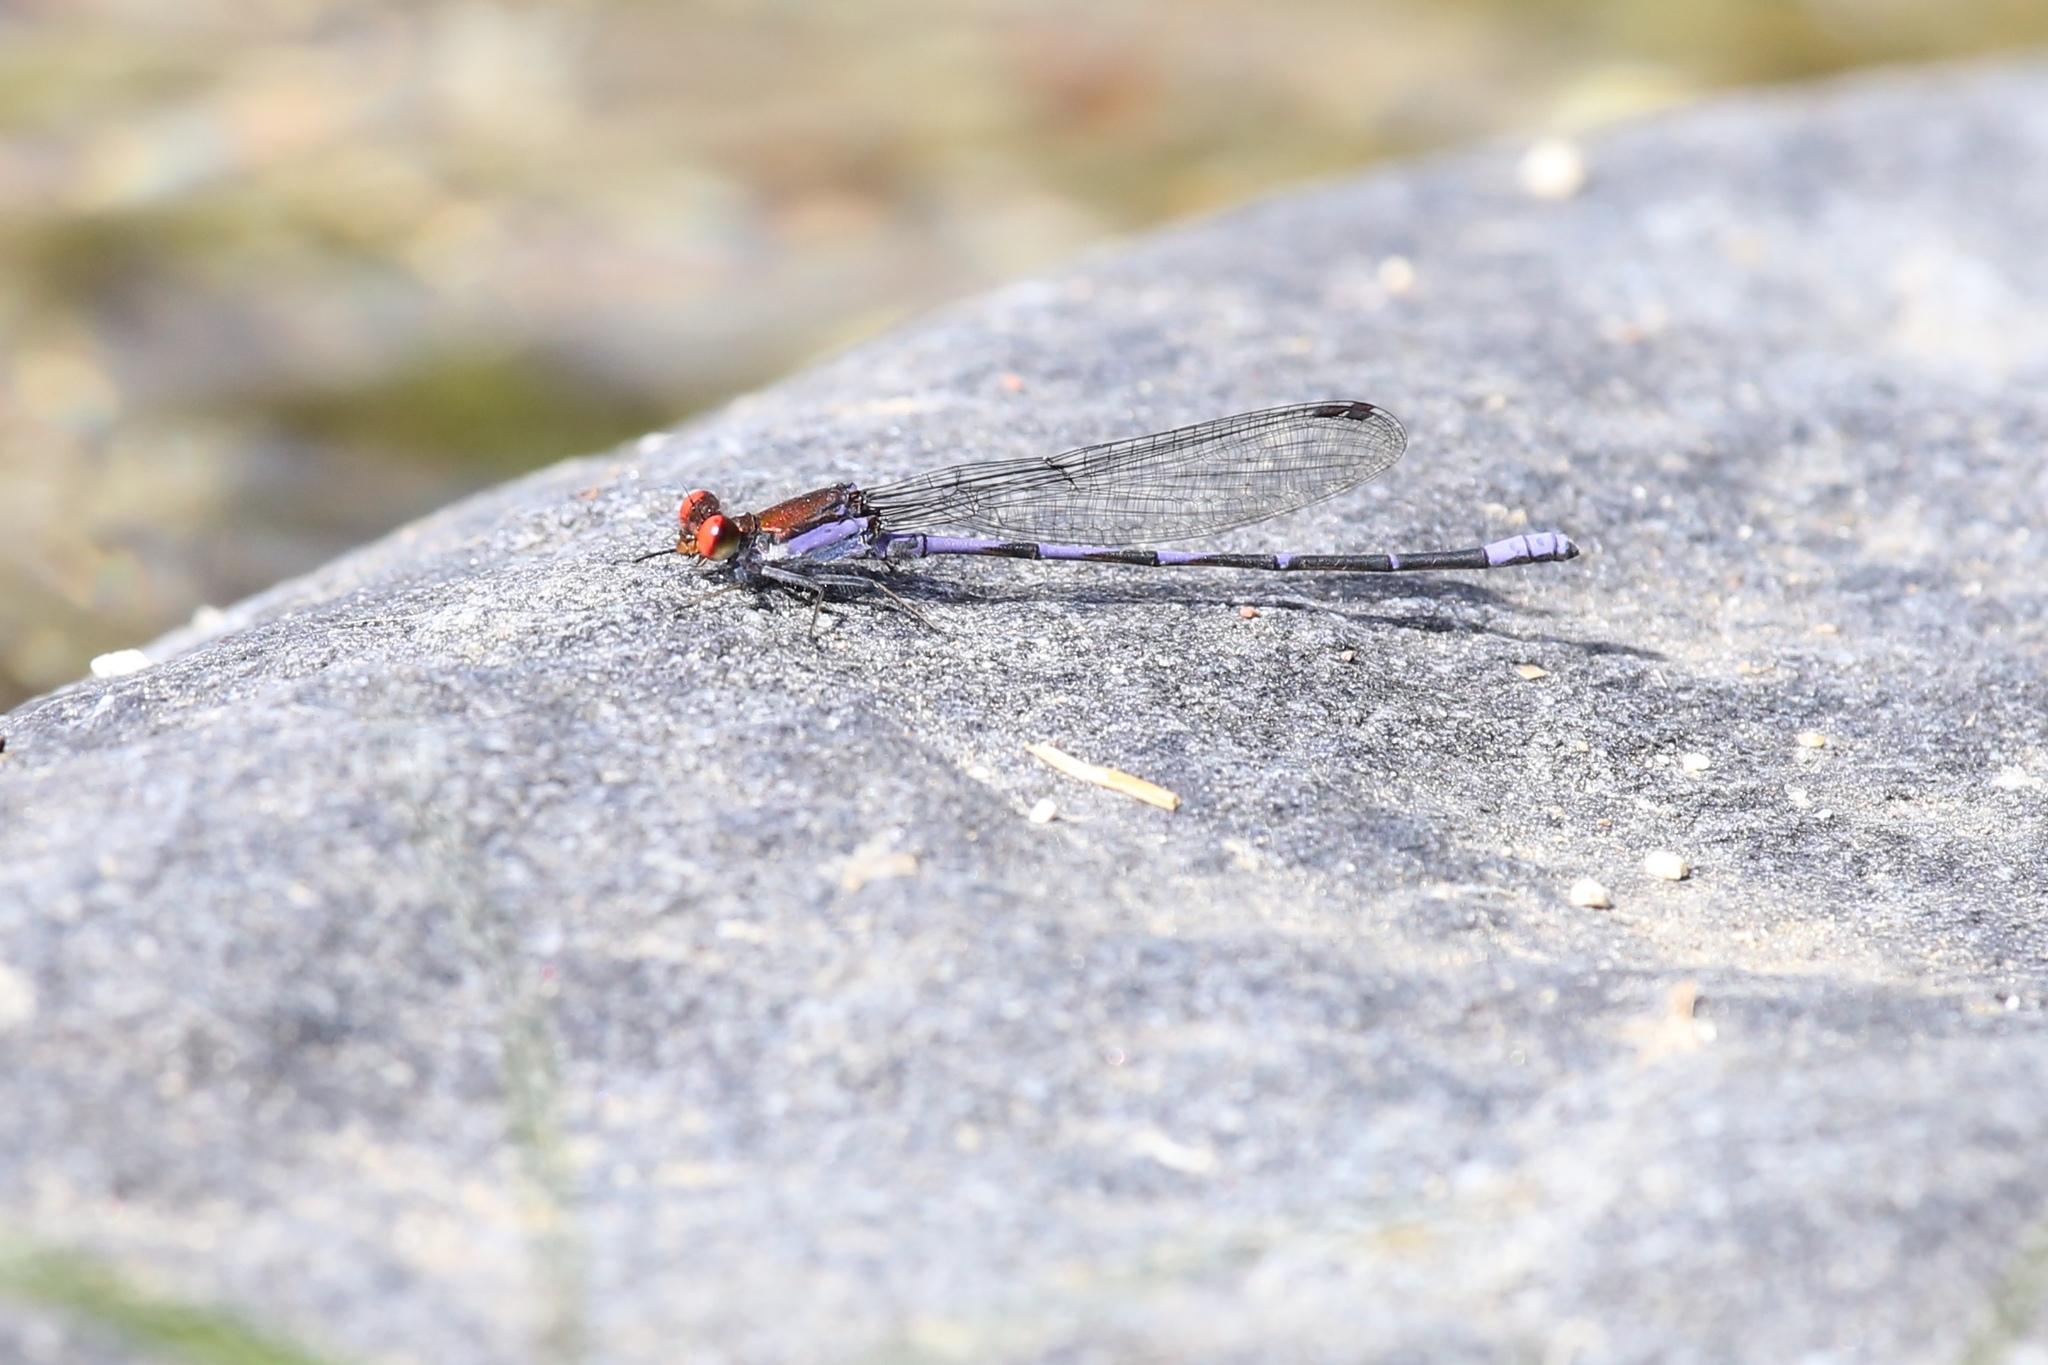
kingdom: Animalia
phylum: Arthropoda
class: Insecta
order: Odonata
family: Coenagrionidae
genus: Argia
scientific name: Argia oenea
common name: Fiery-eyed dancer
